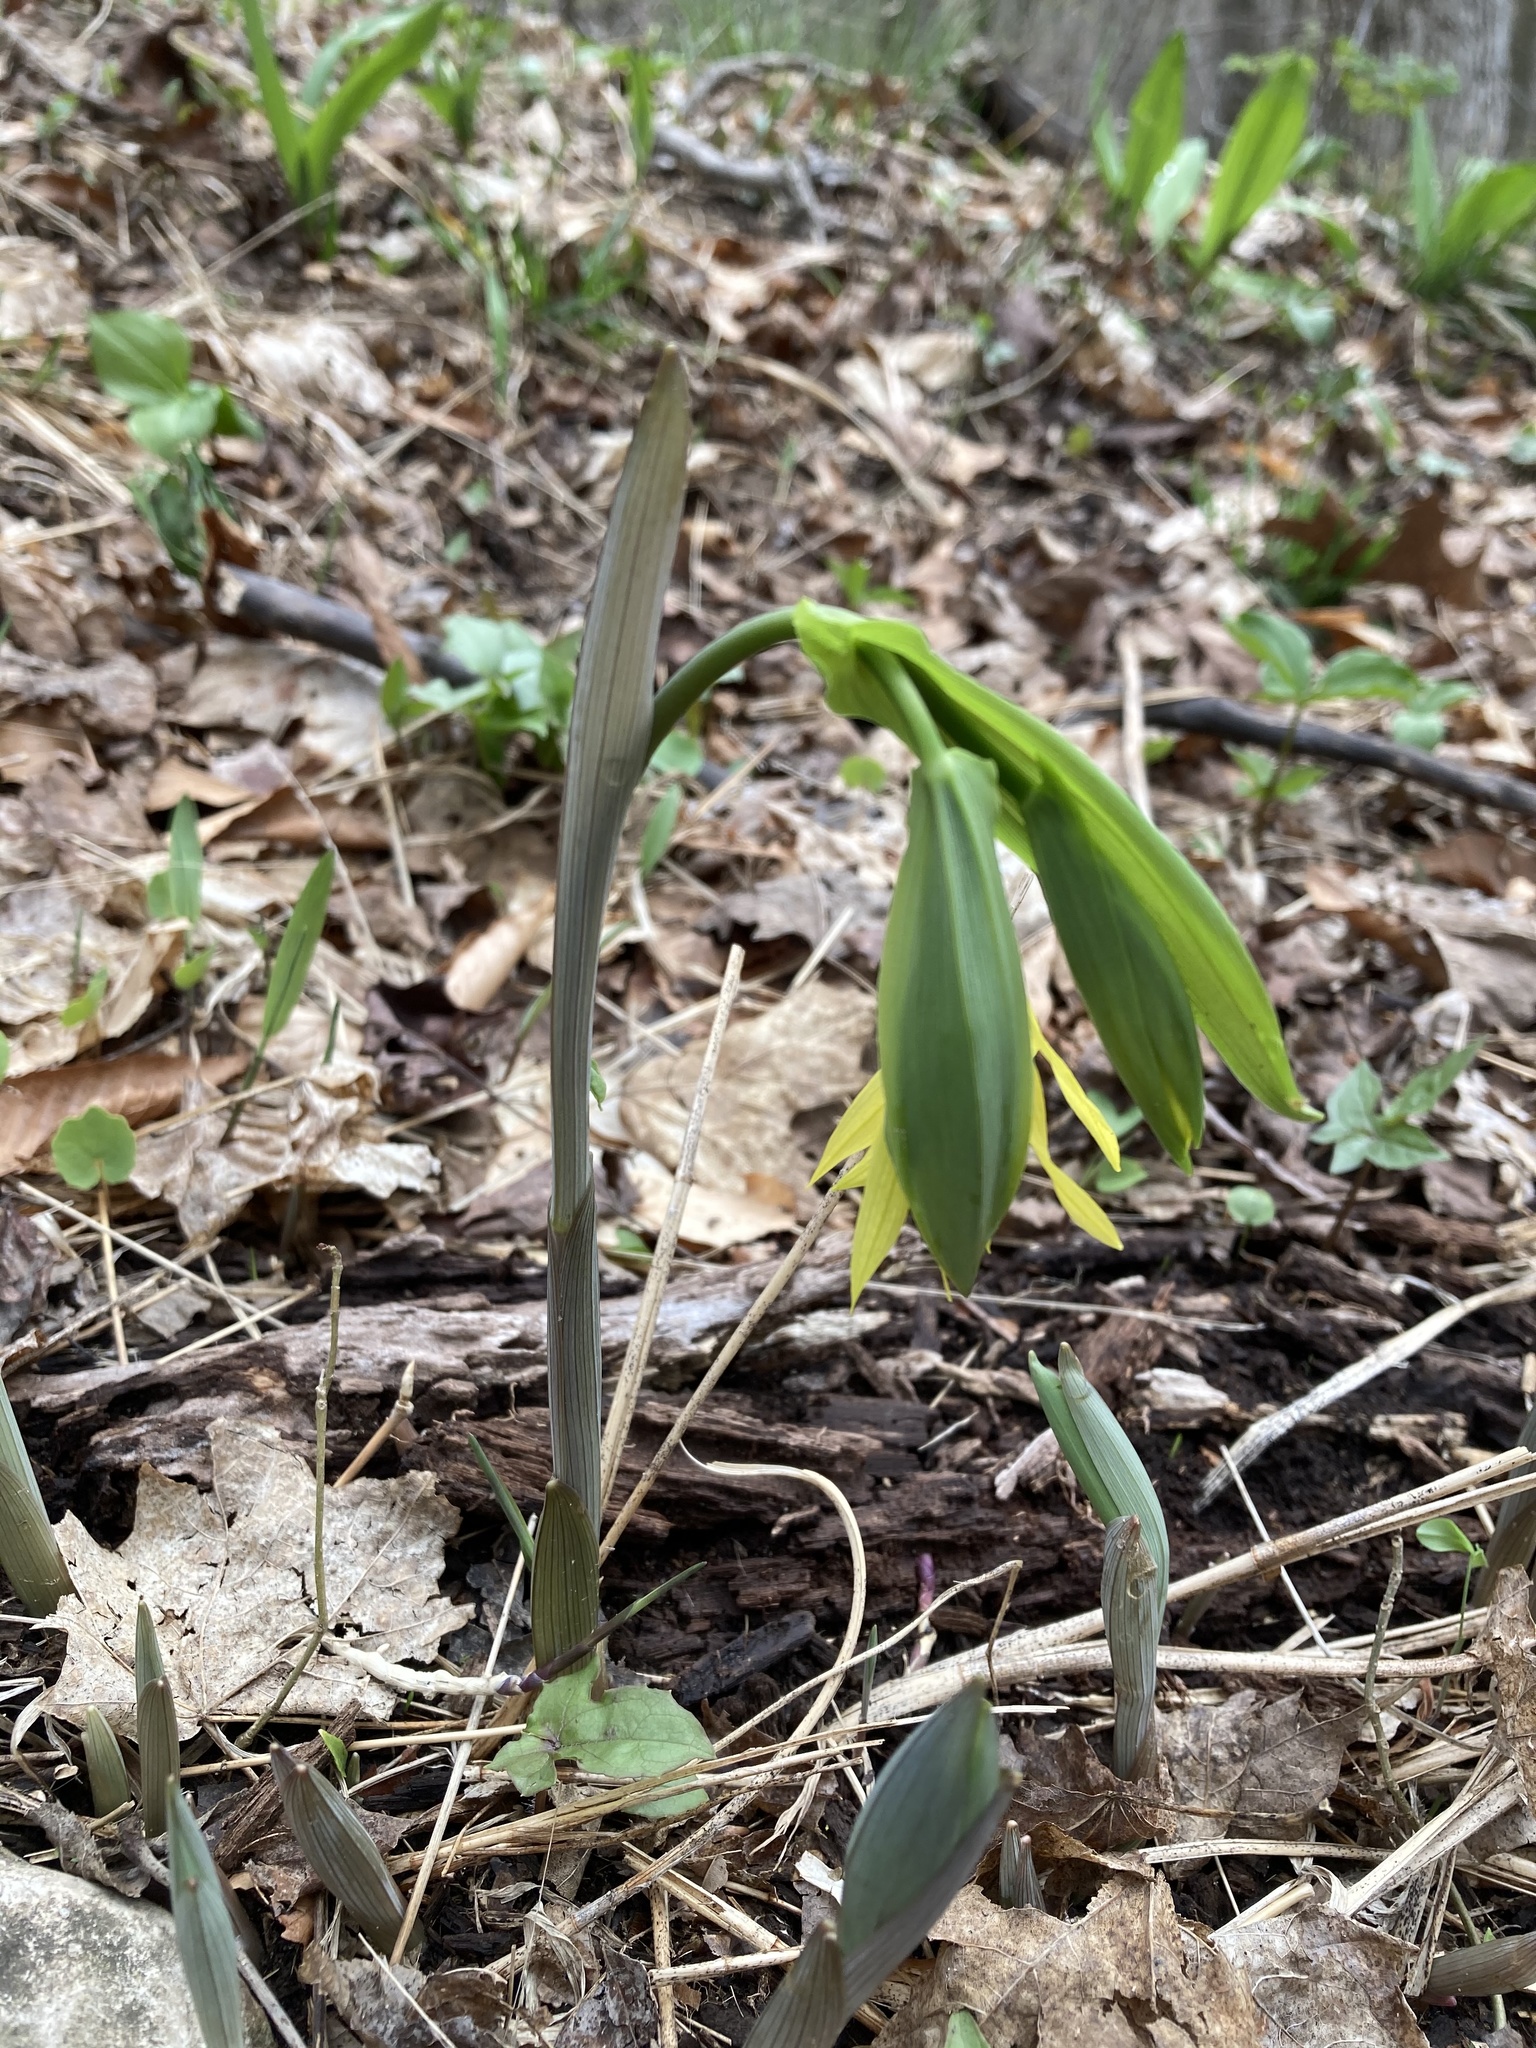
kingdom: Plantae
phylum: Tracheophyta
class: Liliopsida
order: Liliales
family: Colchicaceae
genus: Uvularia
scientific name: Uvularia grandiflora
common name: Bellwort
